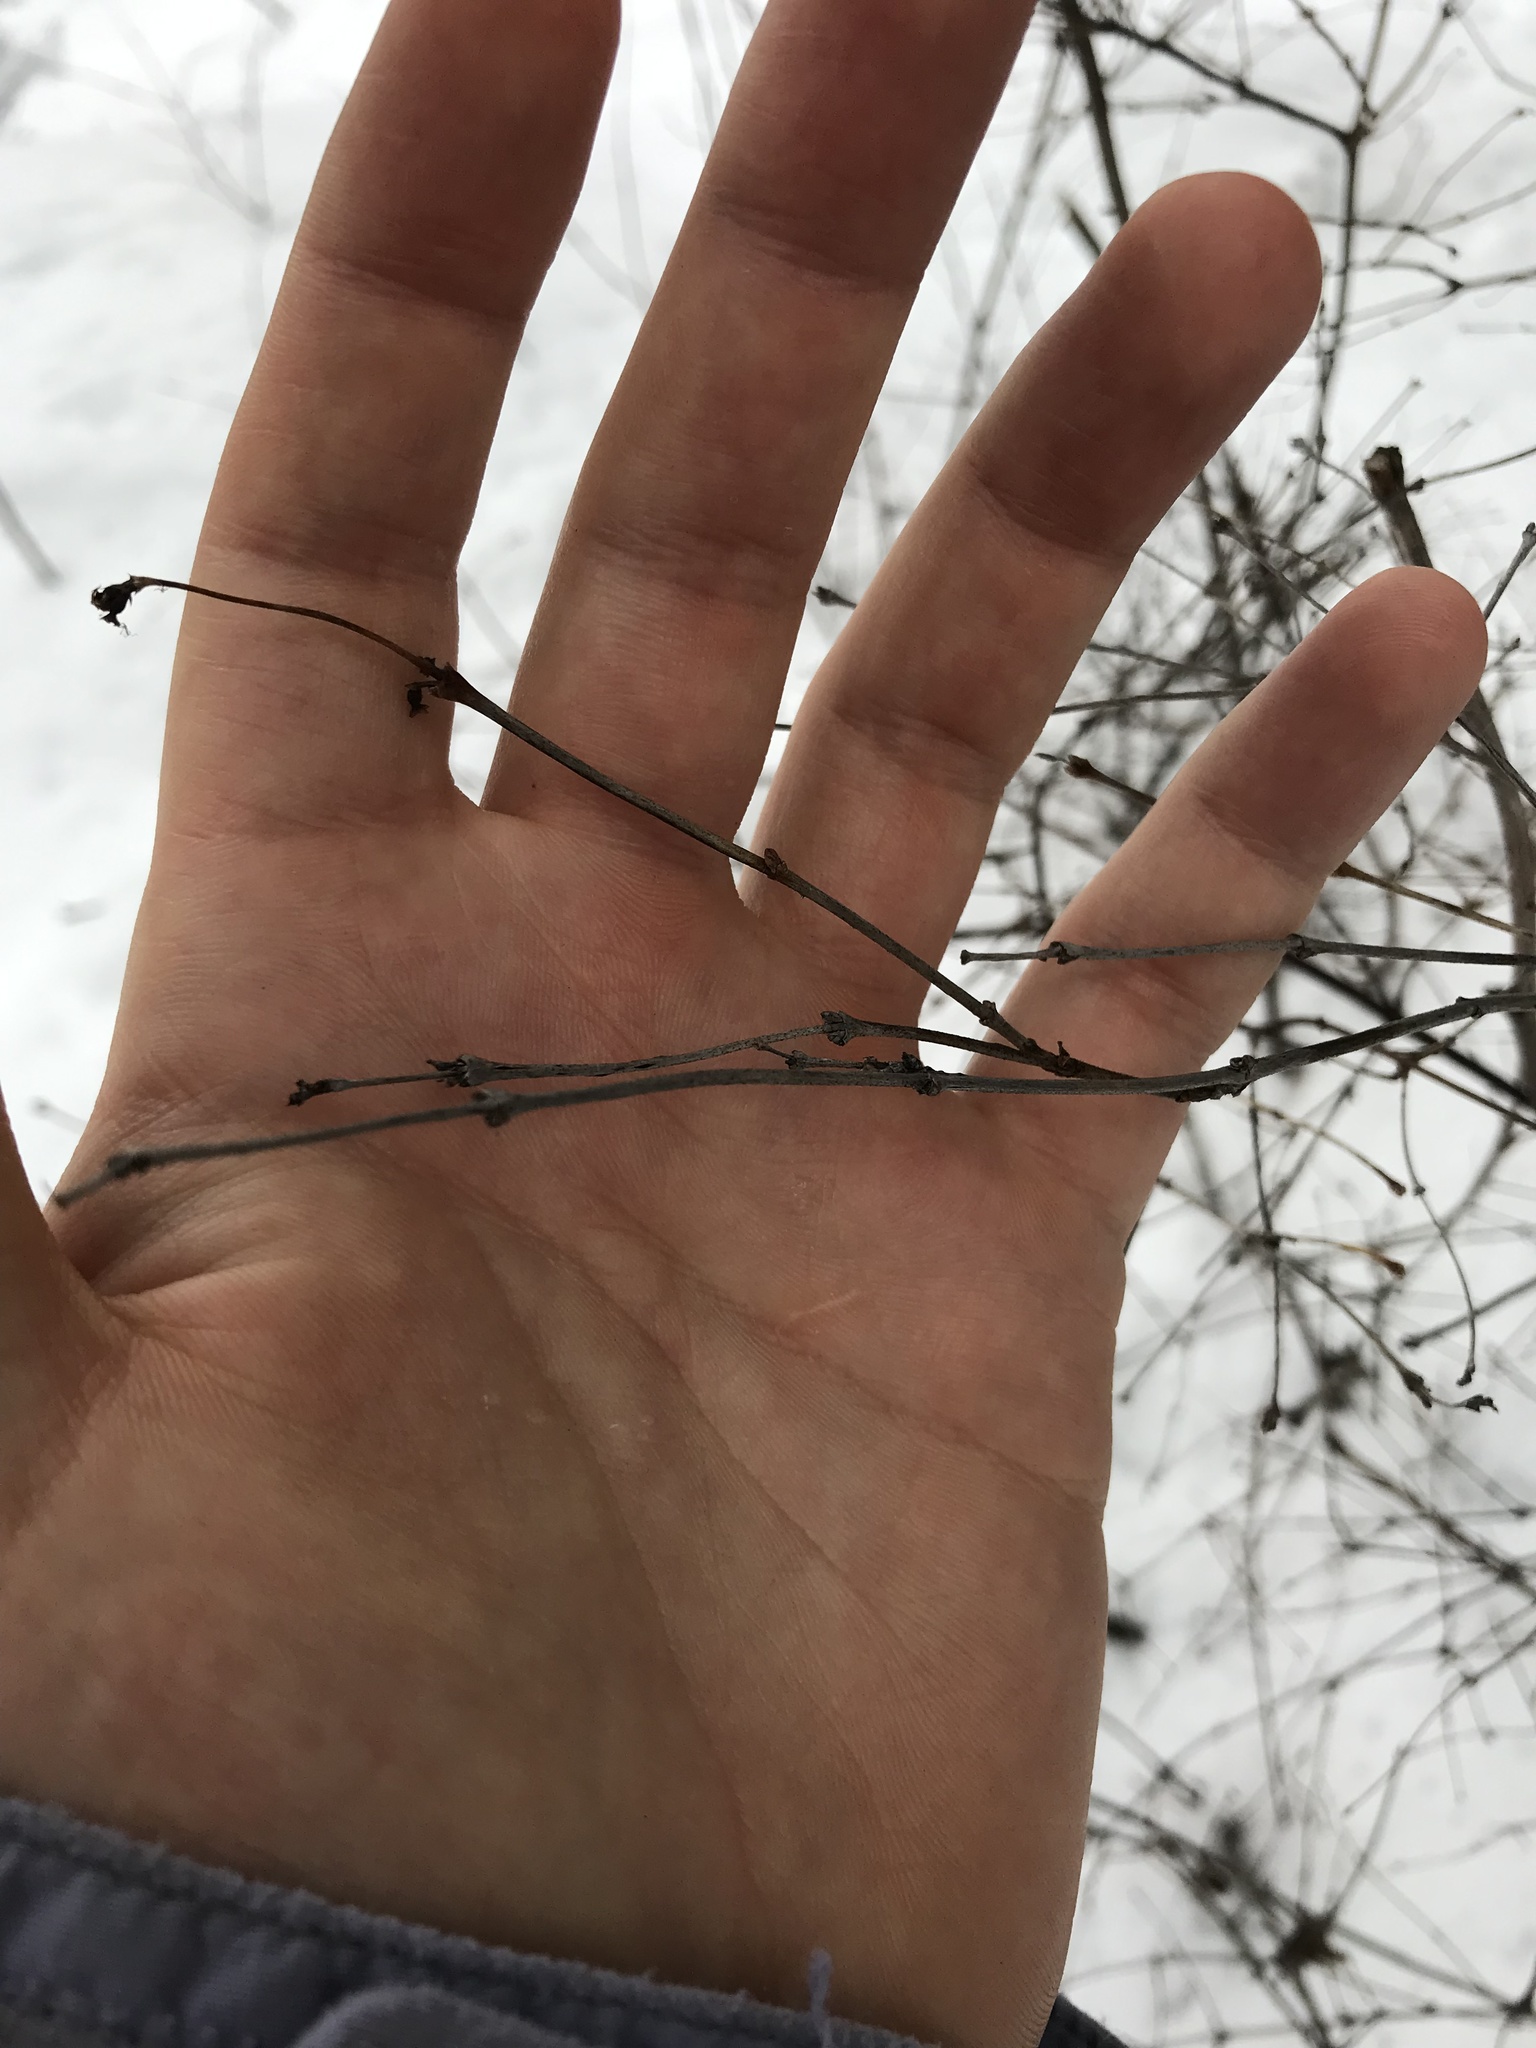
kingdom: Plantae
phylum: Tracheophyta
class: Magnoliopsida
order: Dipsacales
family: Caprifoliaceae
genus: Symphoricarpos
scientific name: Symphoricarpos albus
